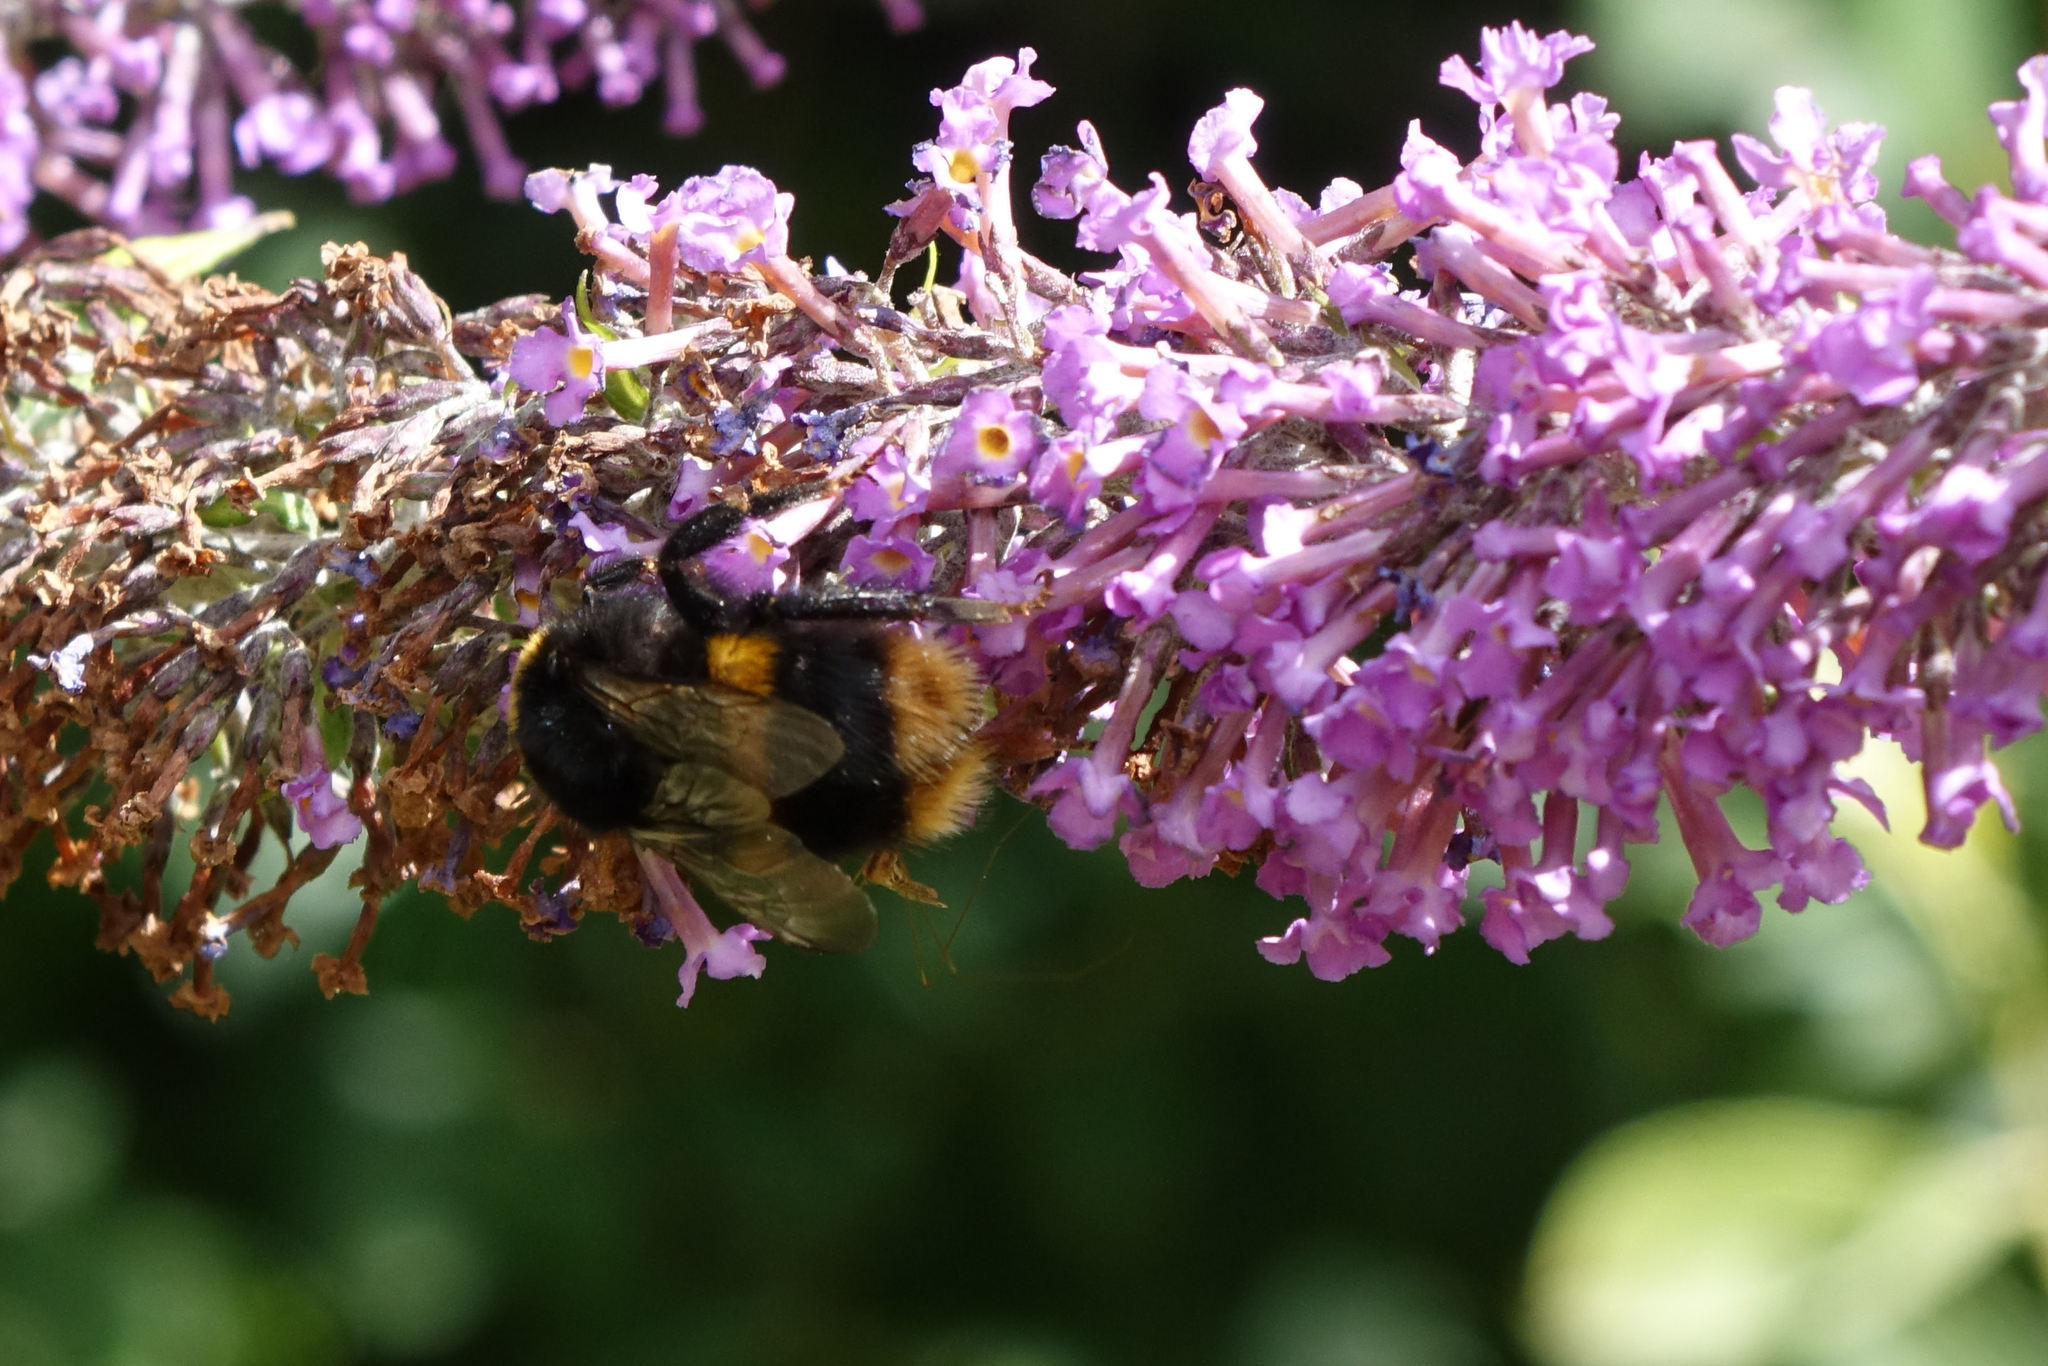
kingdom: Animalia
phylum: Arthropoda
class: Insecta
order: Hymenoptera
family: Apidae
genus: Bombus
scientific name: Bombus terrestris
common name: Buff-tailed bumblebee
